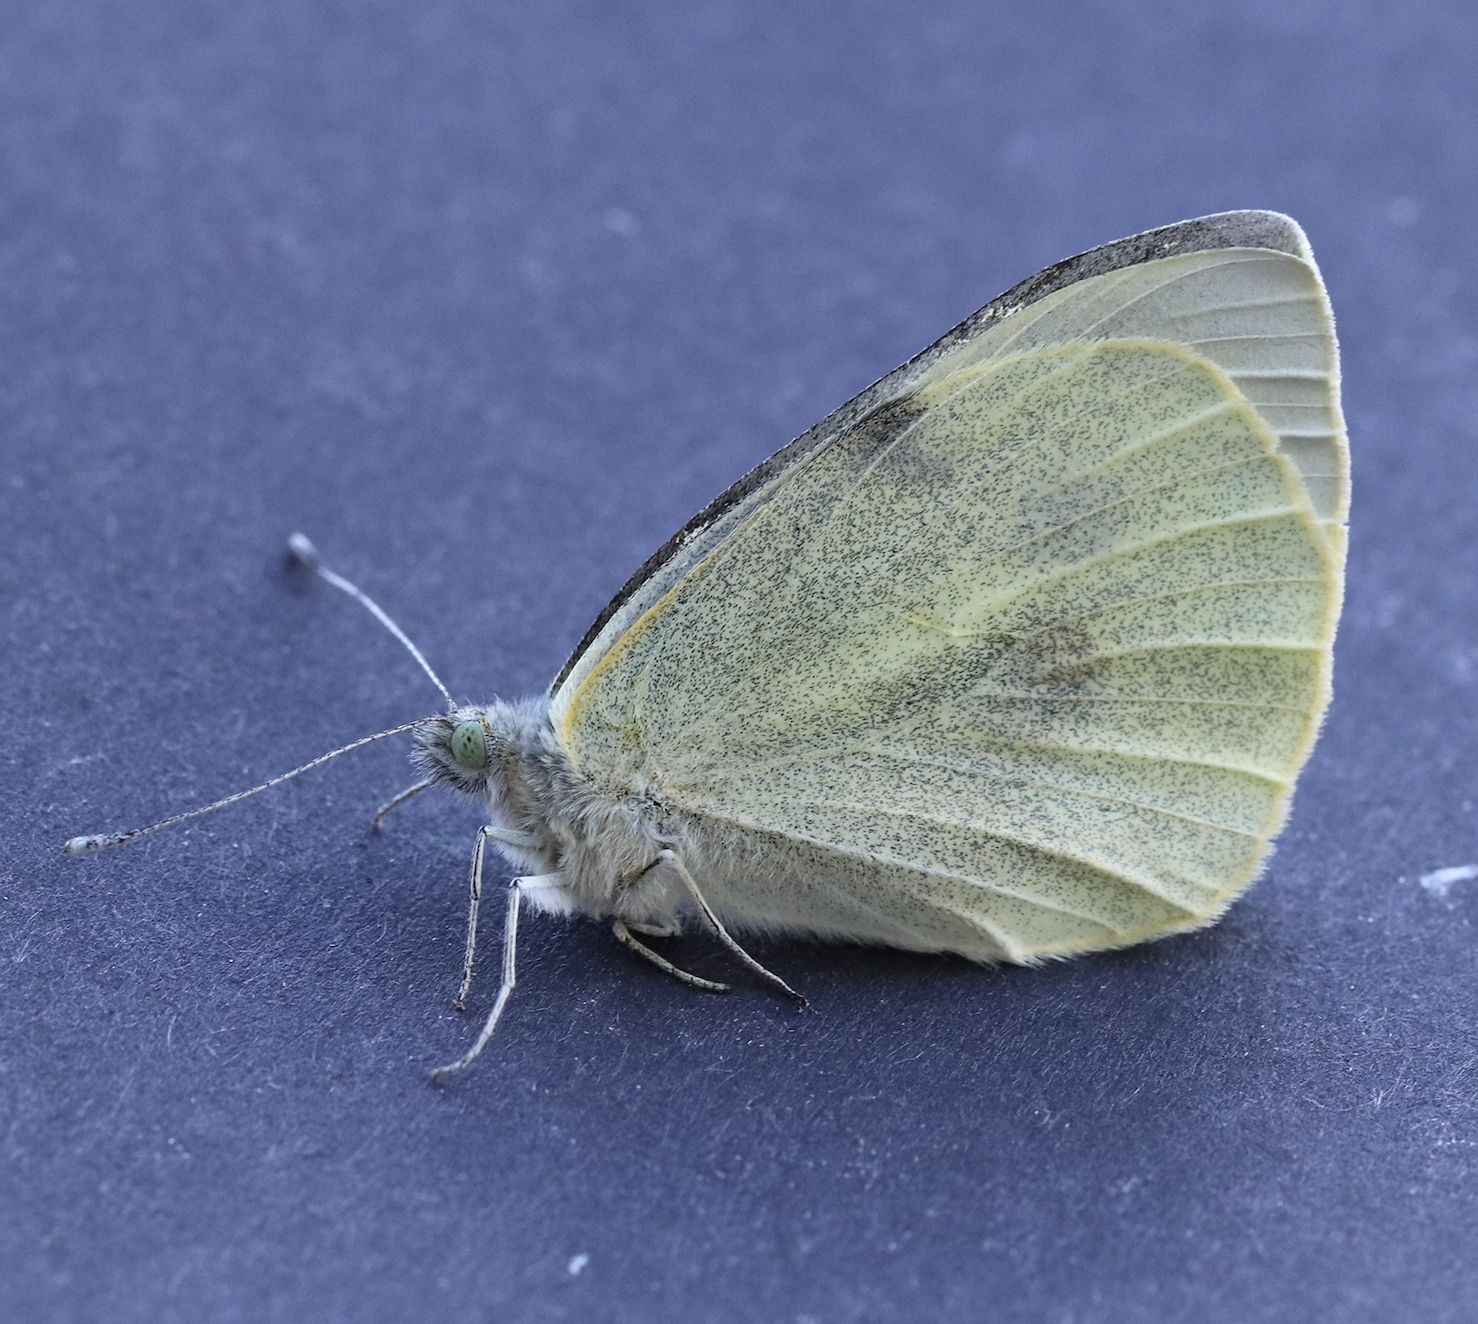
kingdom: Animalia
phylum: Arthropoda
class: Insecta
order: Lepidoptera
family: Pieridae
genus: Pieris
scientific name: Pieris brassicae
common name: Large white
